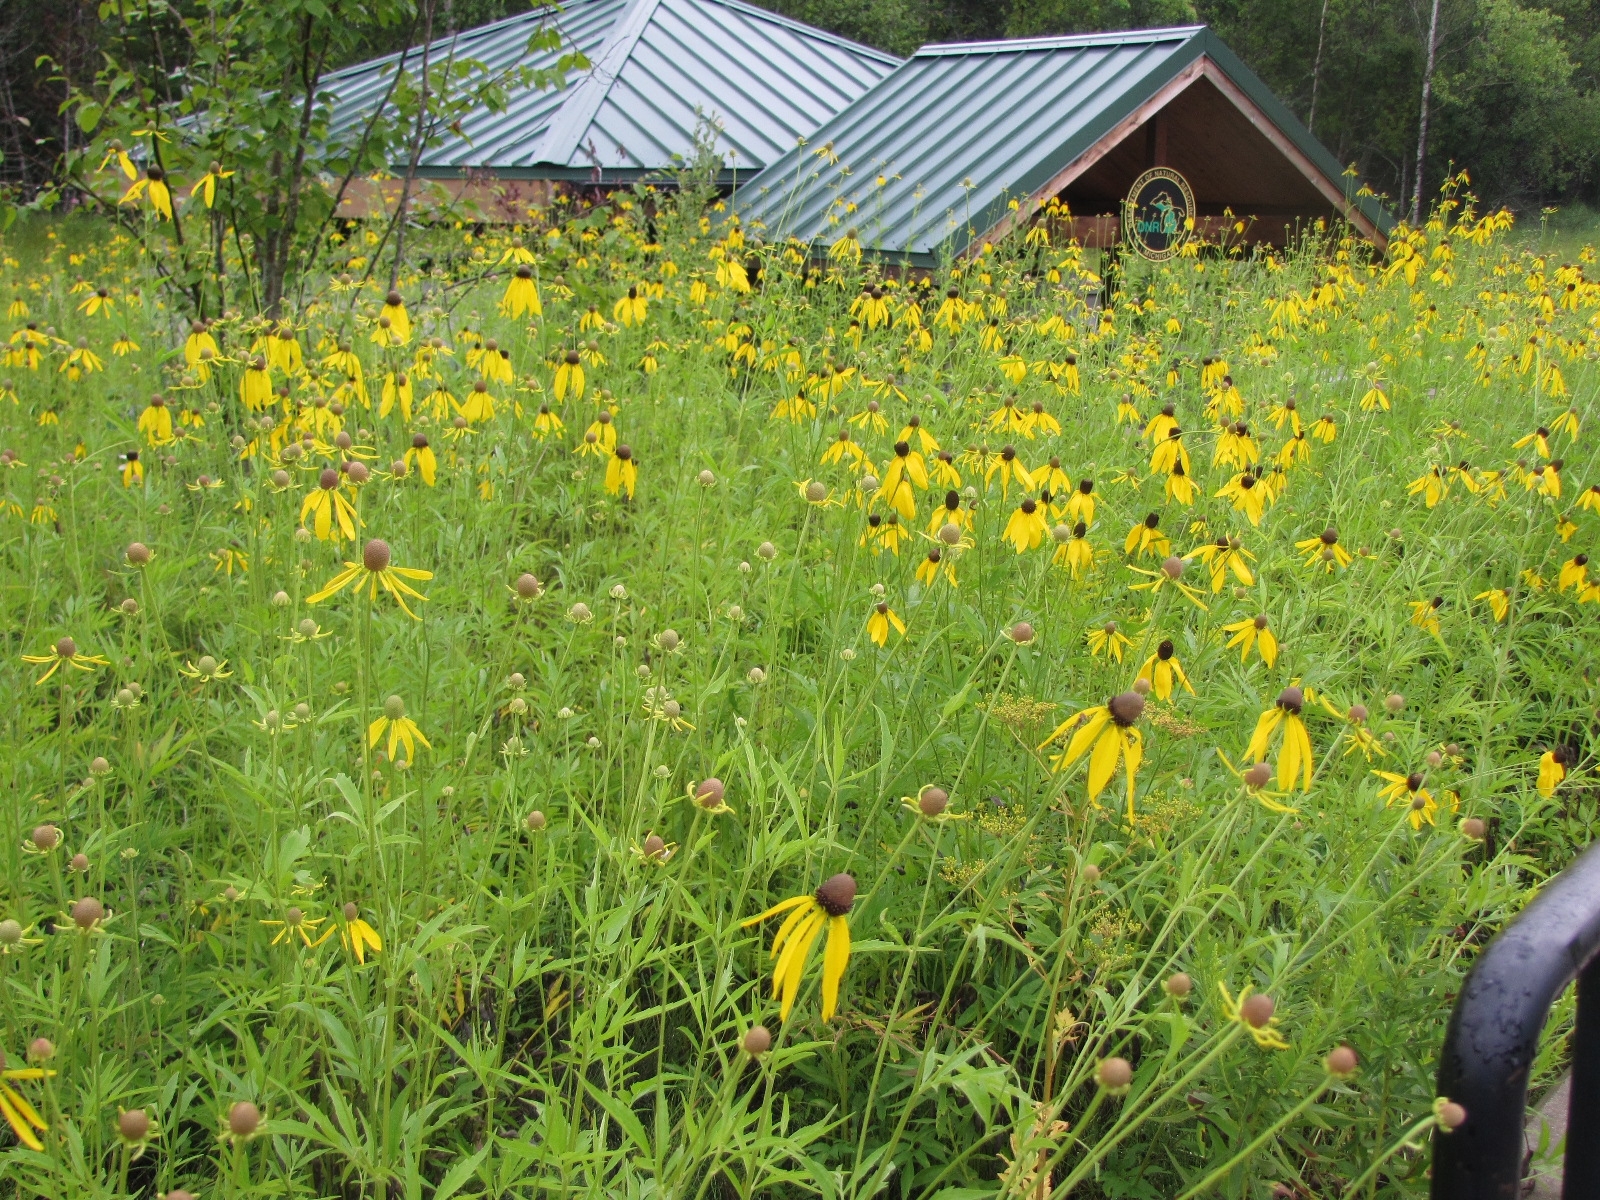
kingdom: Plantae
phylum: Tracheophyta
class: Magnoliopsida
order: Asterales
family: Asteraceae
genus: Ratibida
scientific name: Ratibida pinnata
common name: Drooping prairie-coneflower
